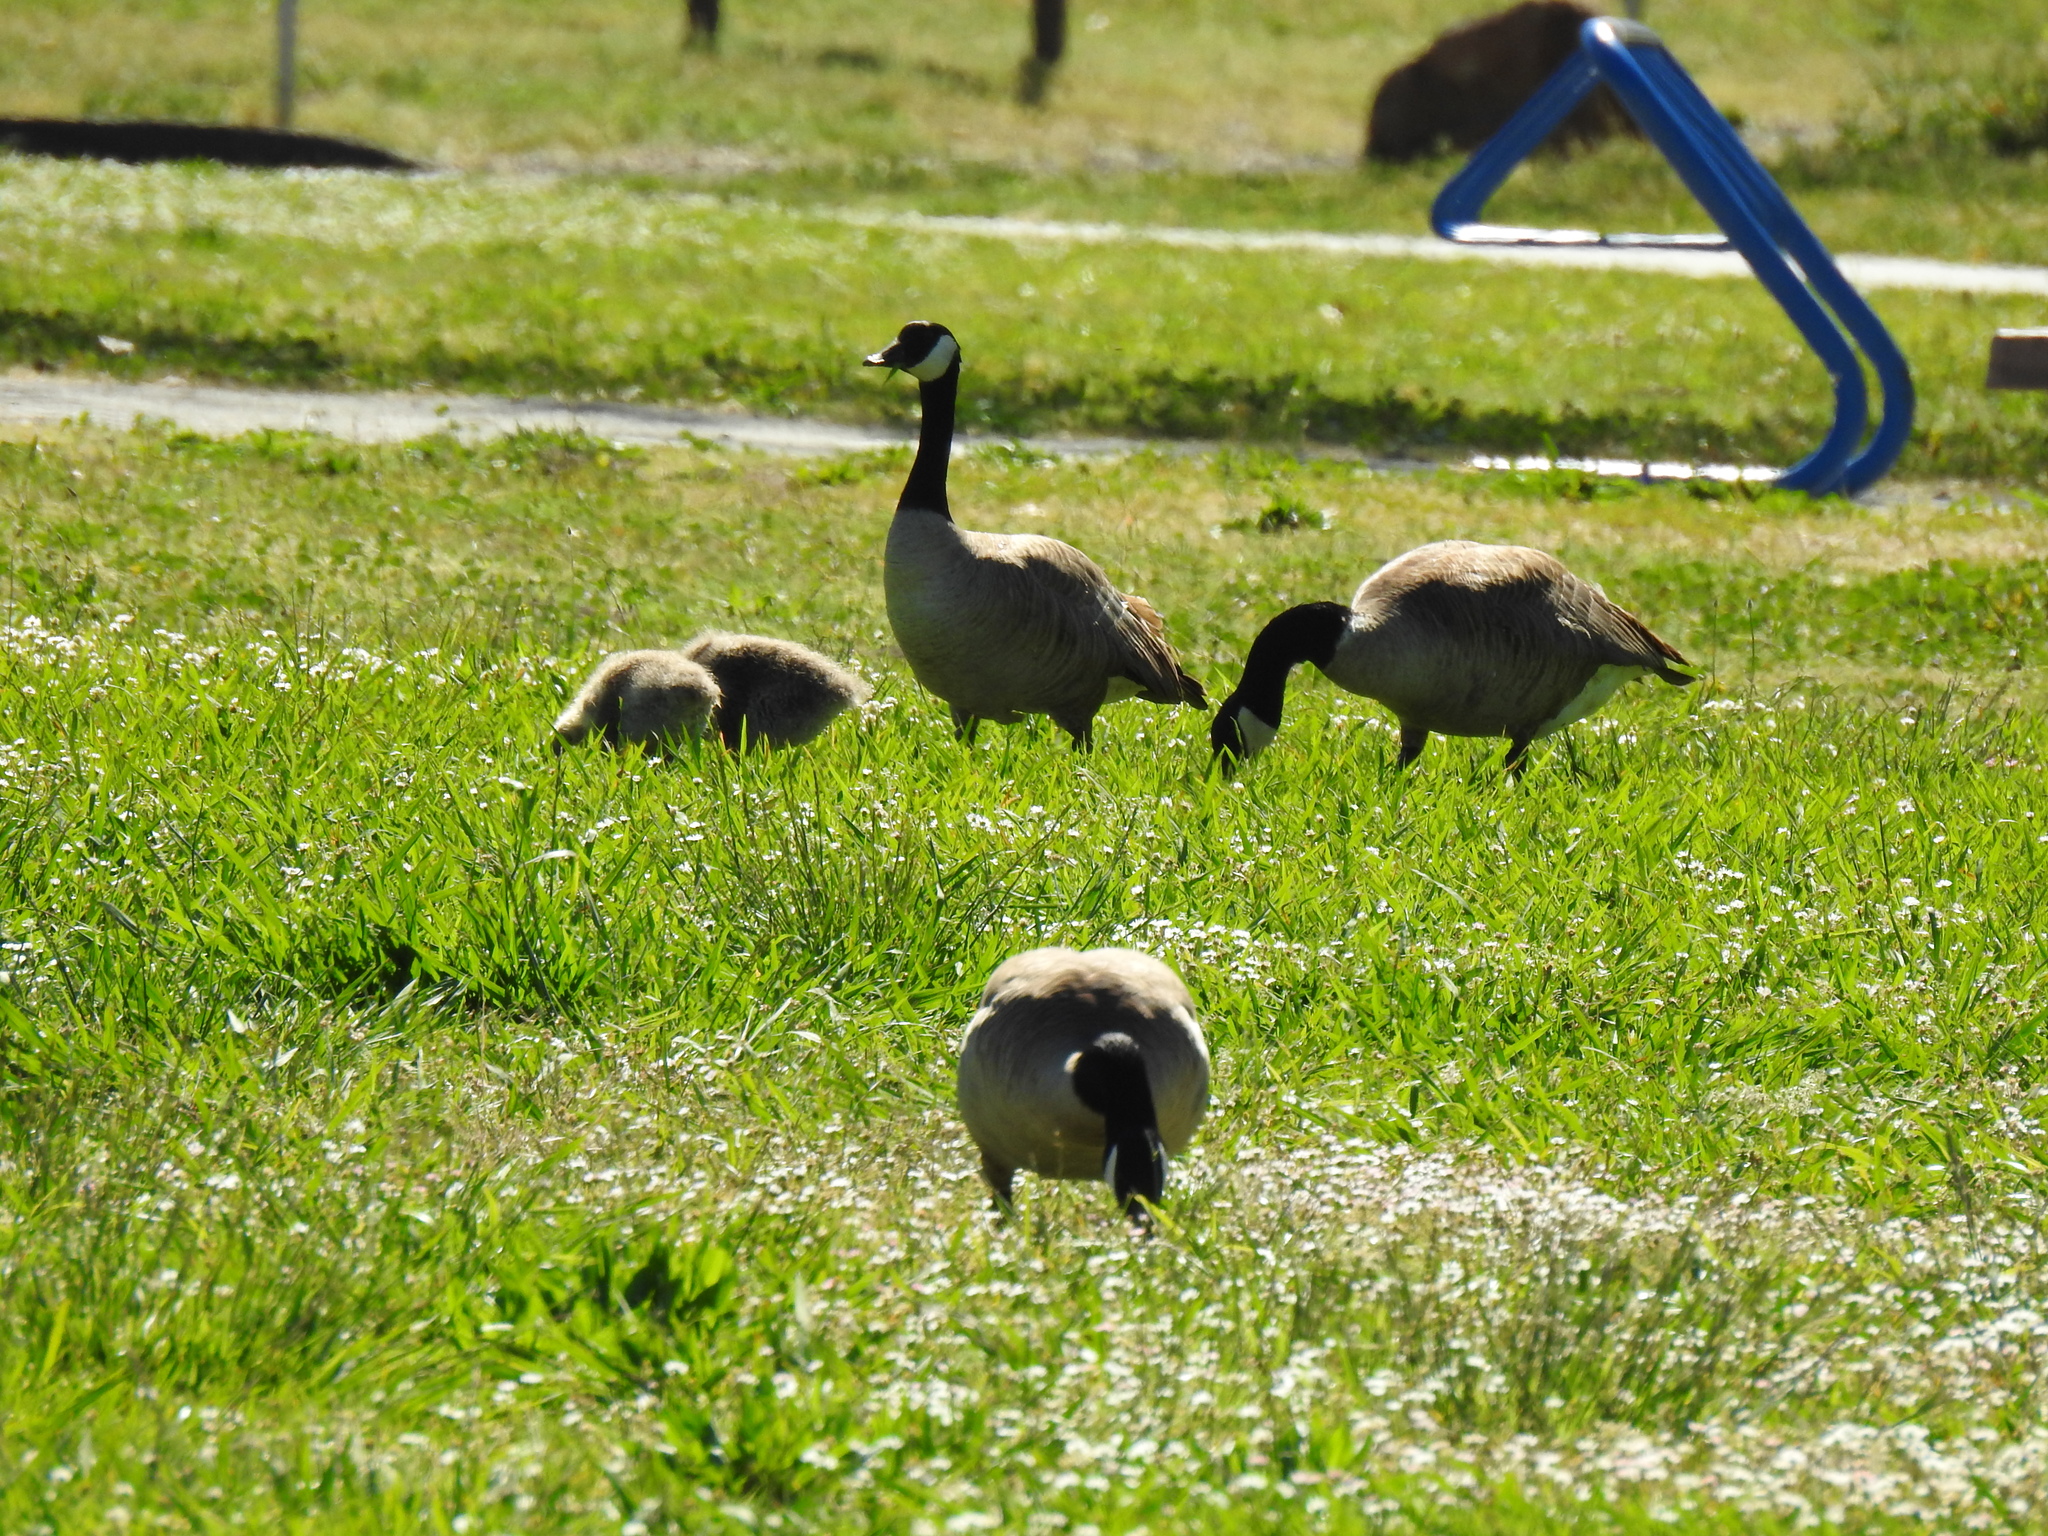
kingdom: Animalia
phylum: Chordata
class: Aves
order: Anseriformes
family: Anatidae
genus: Branta
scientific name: Branta canadensis
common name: Canada goose
